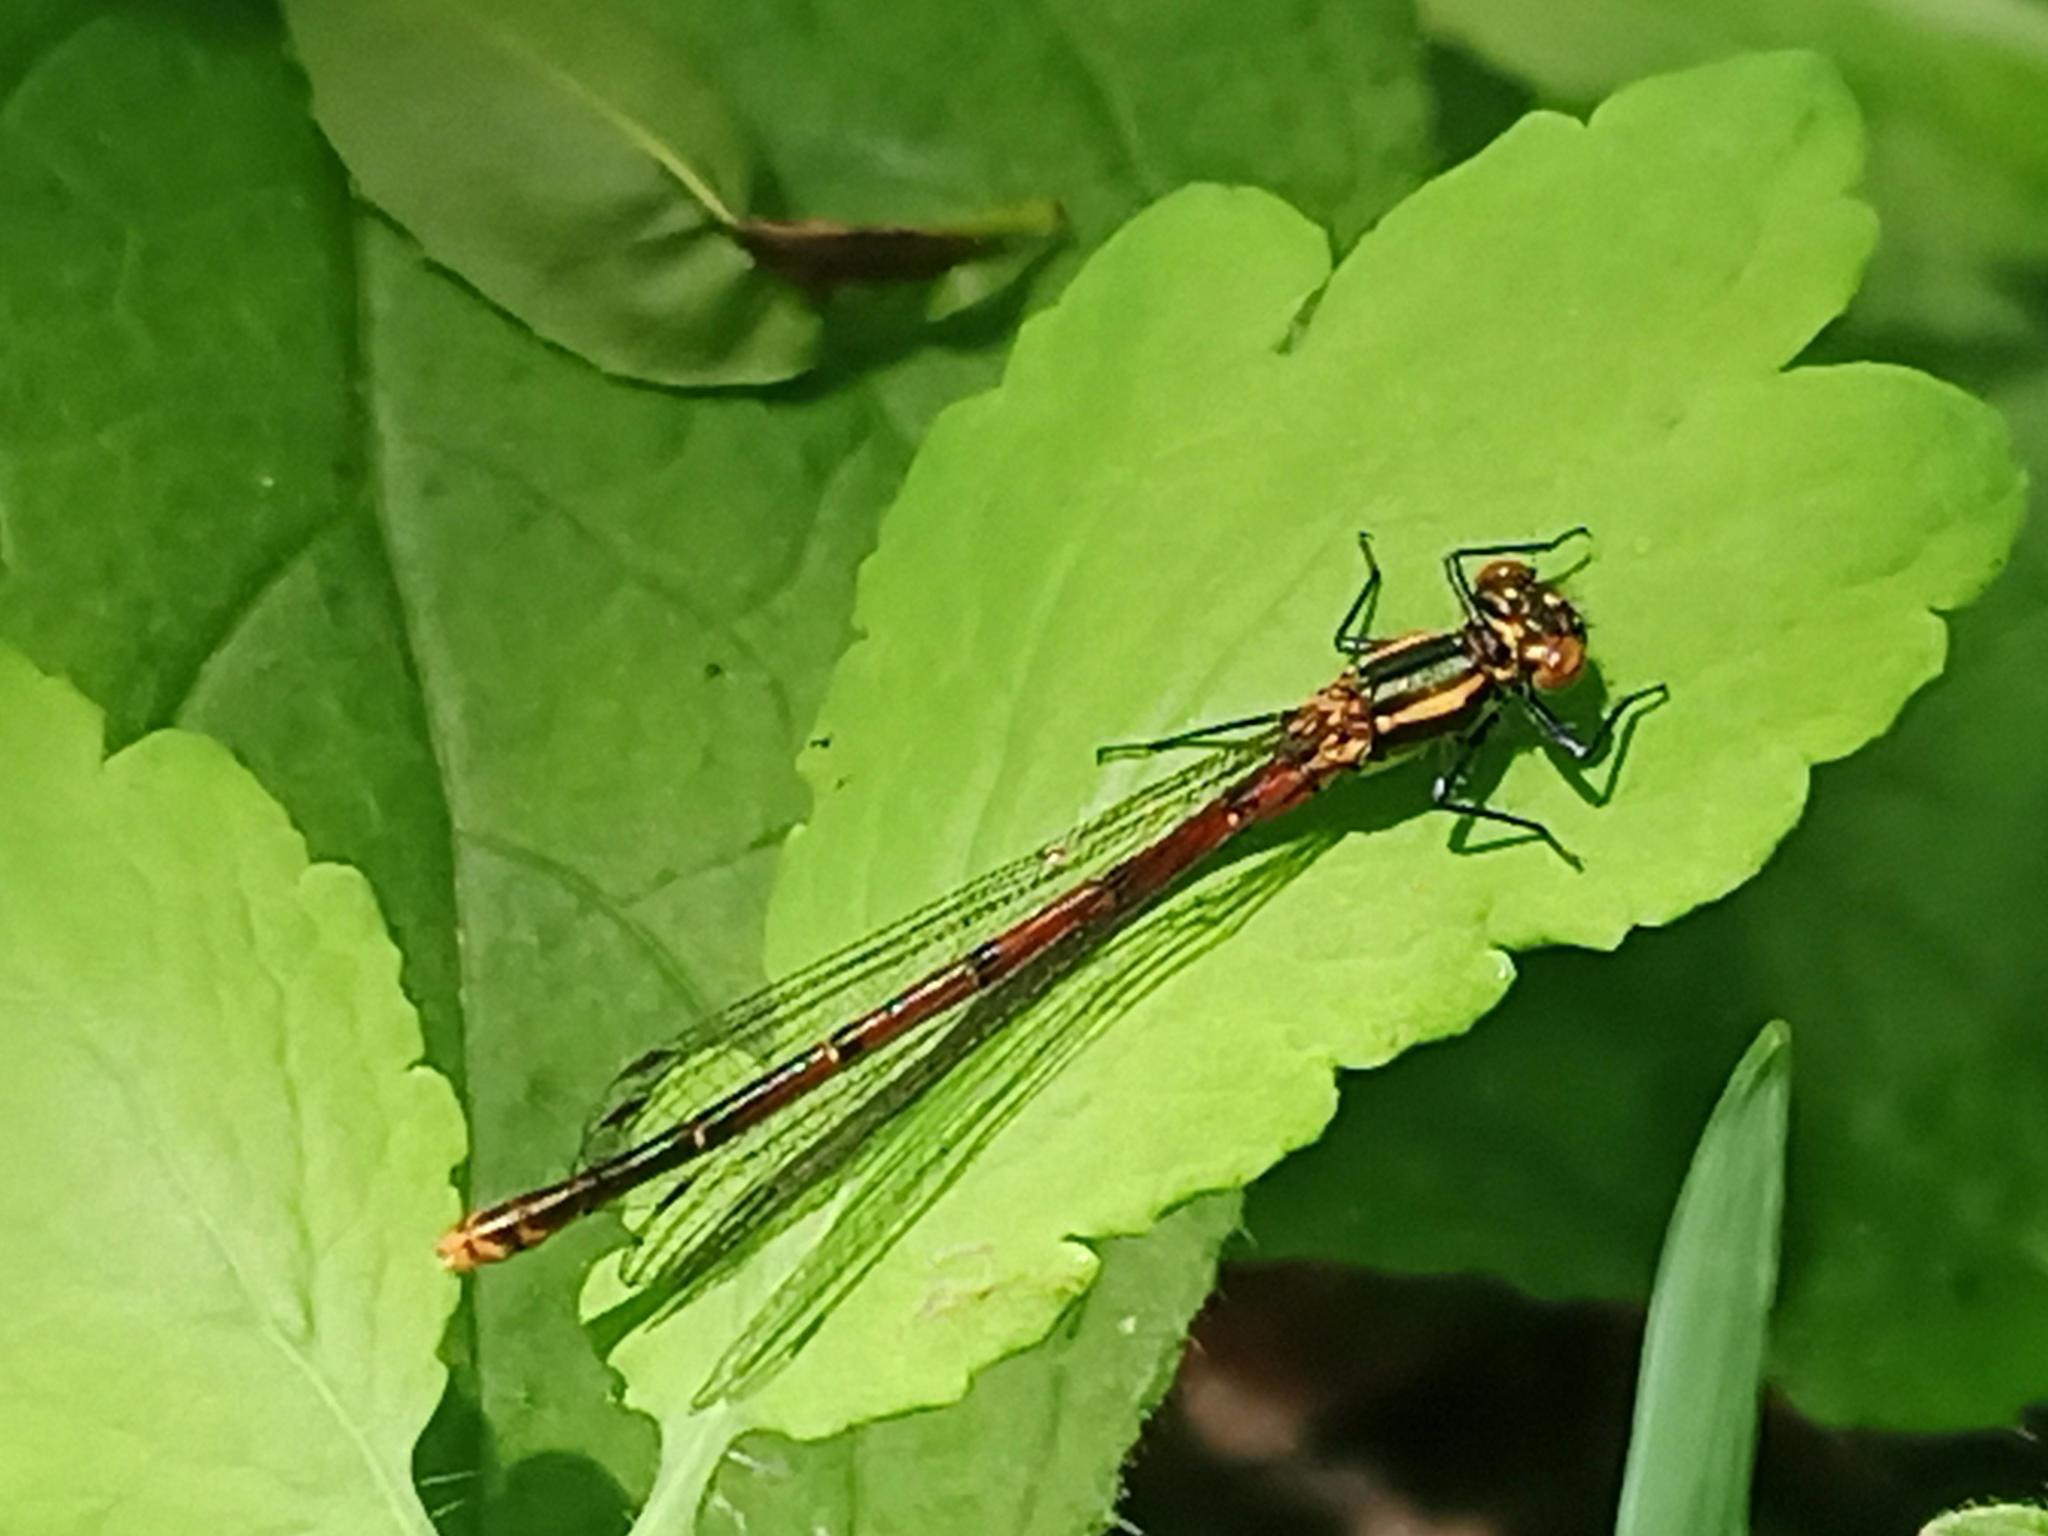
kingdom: Animalia
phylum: Arthropoda
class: Insecta
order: Odonata
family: Coenagrionidae
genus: Pyrrhosoma
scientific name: Pyrrhosoma nymphula
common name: Large red damsel
